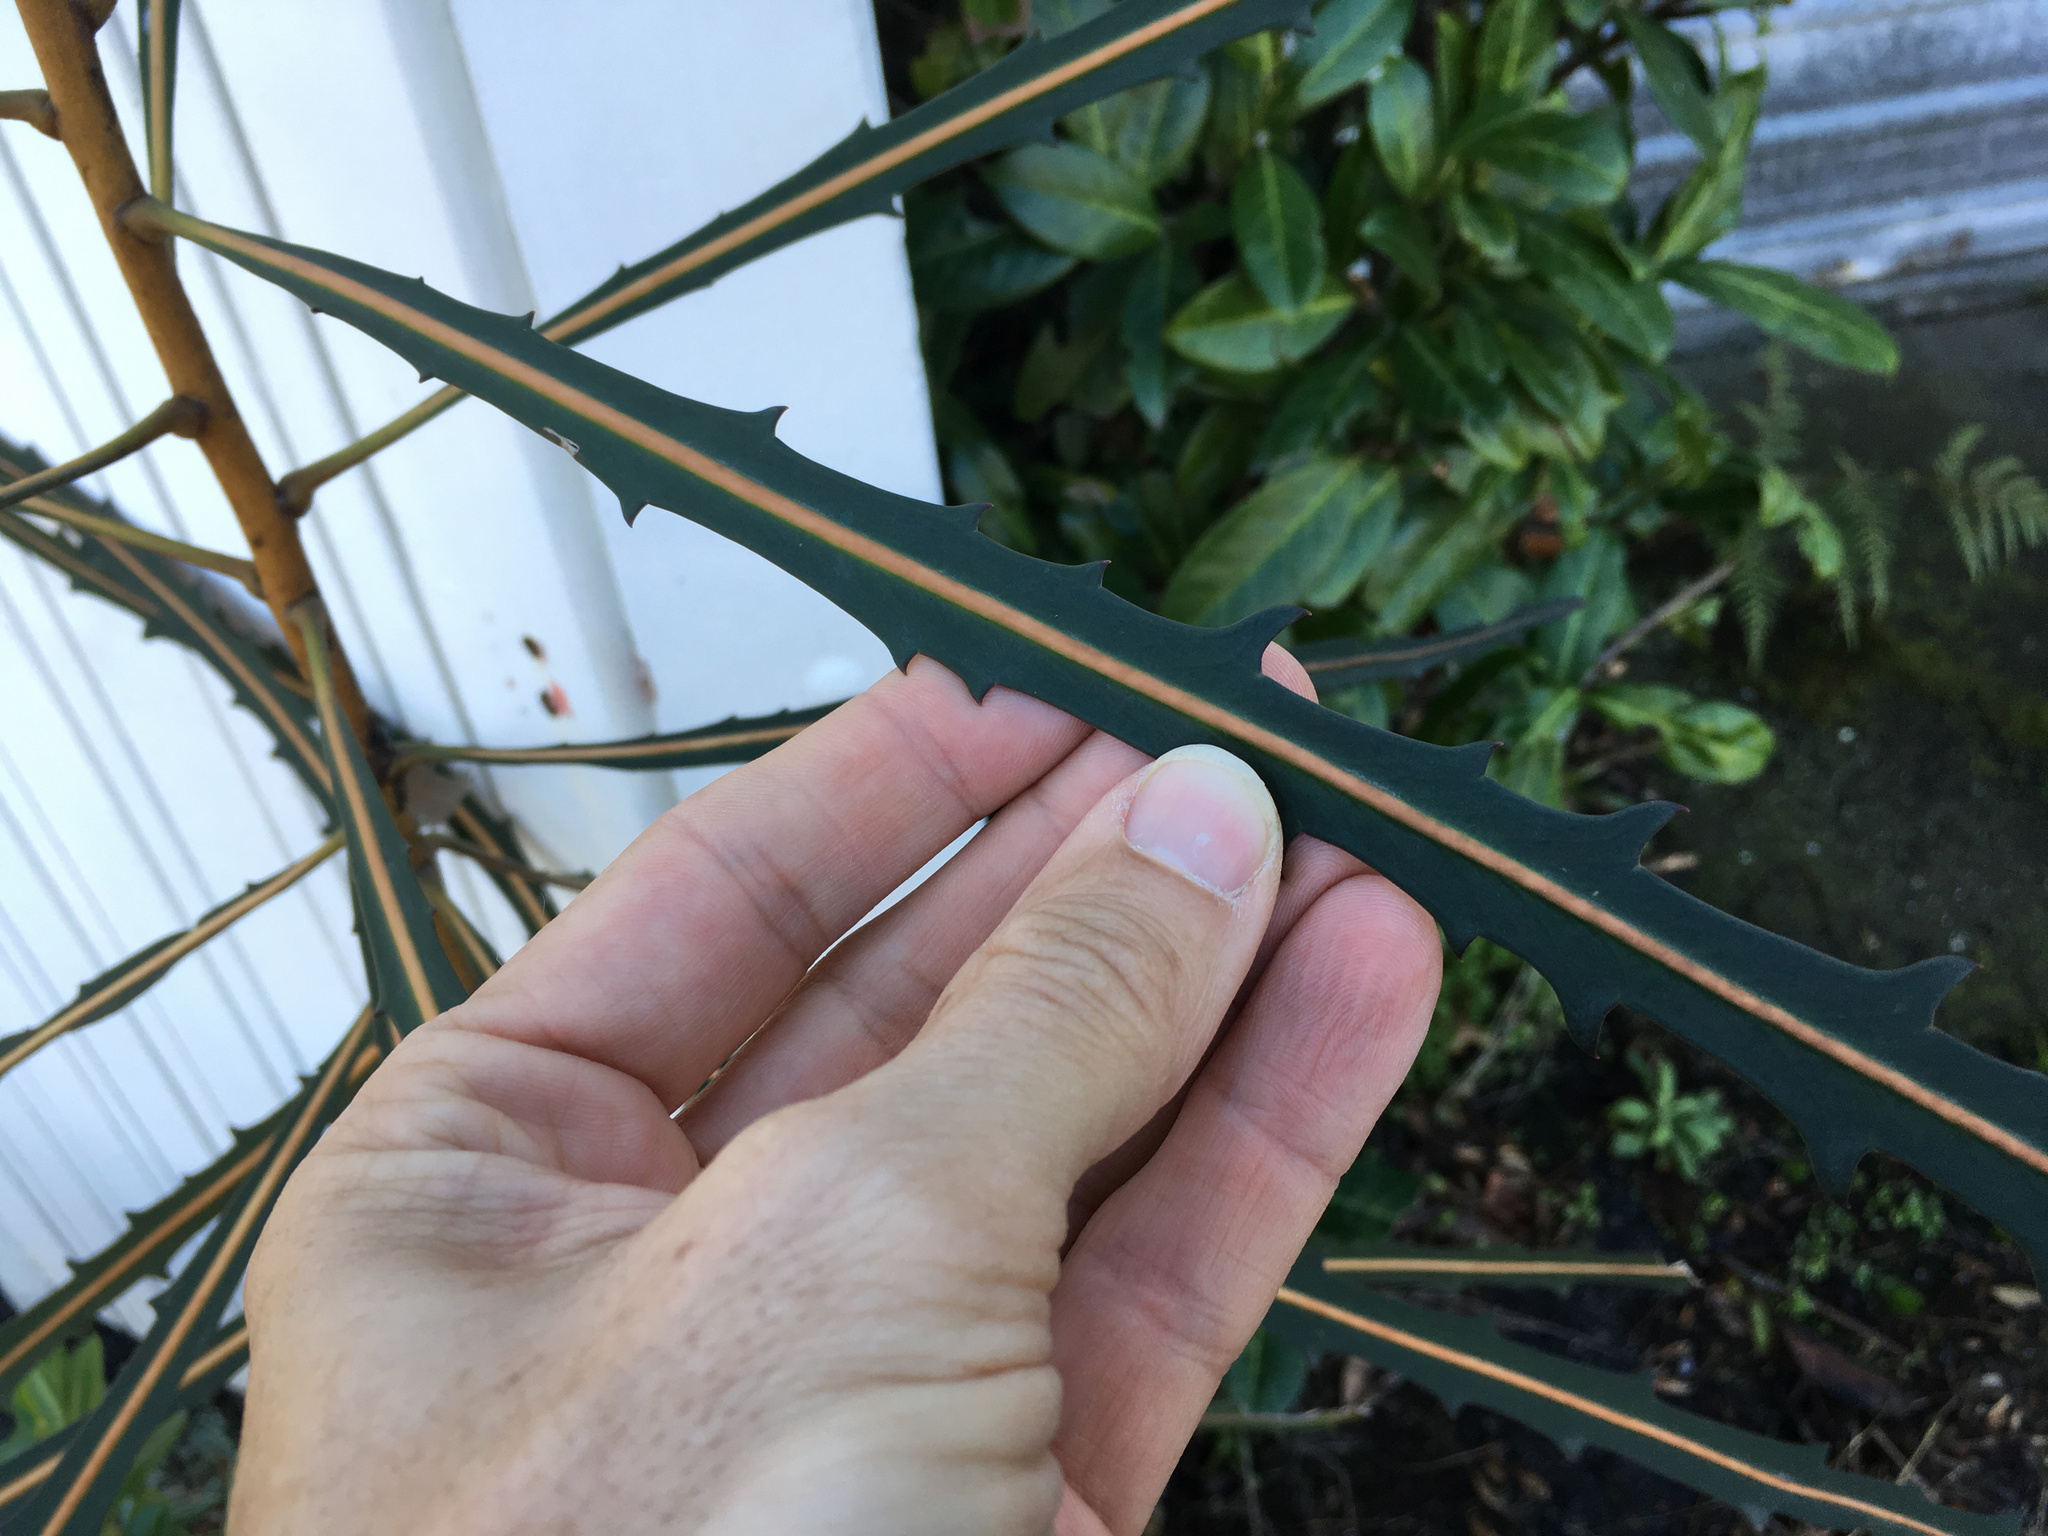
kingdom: Plantae
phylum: Tracheophyta
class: Magnoliopsida
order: Apiales
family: Araliaceae
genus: Pseudopanax
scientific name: Pseudopanax crassifolius
